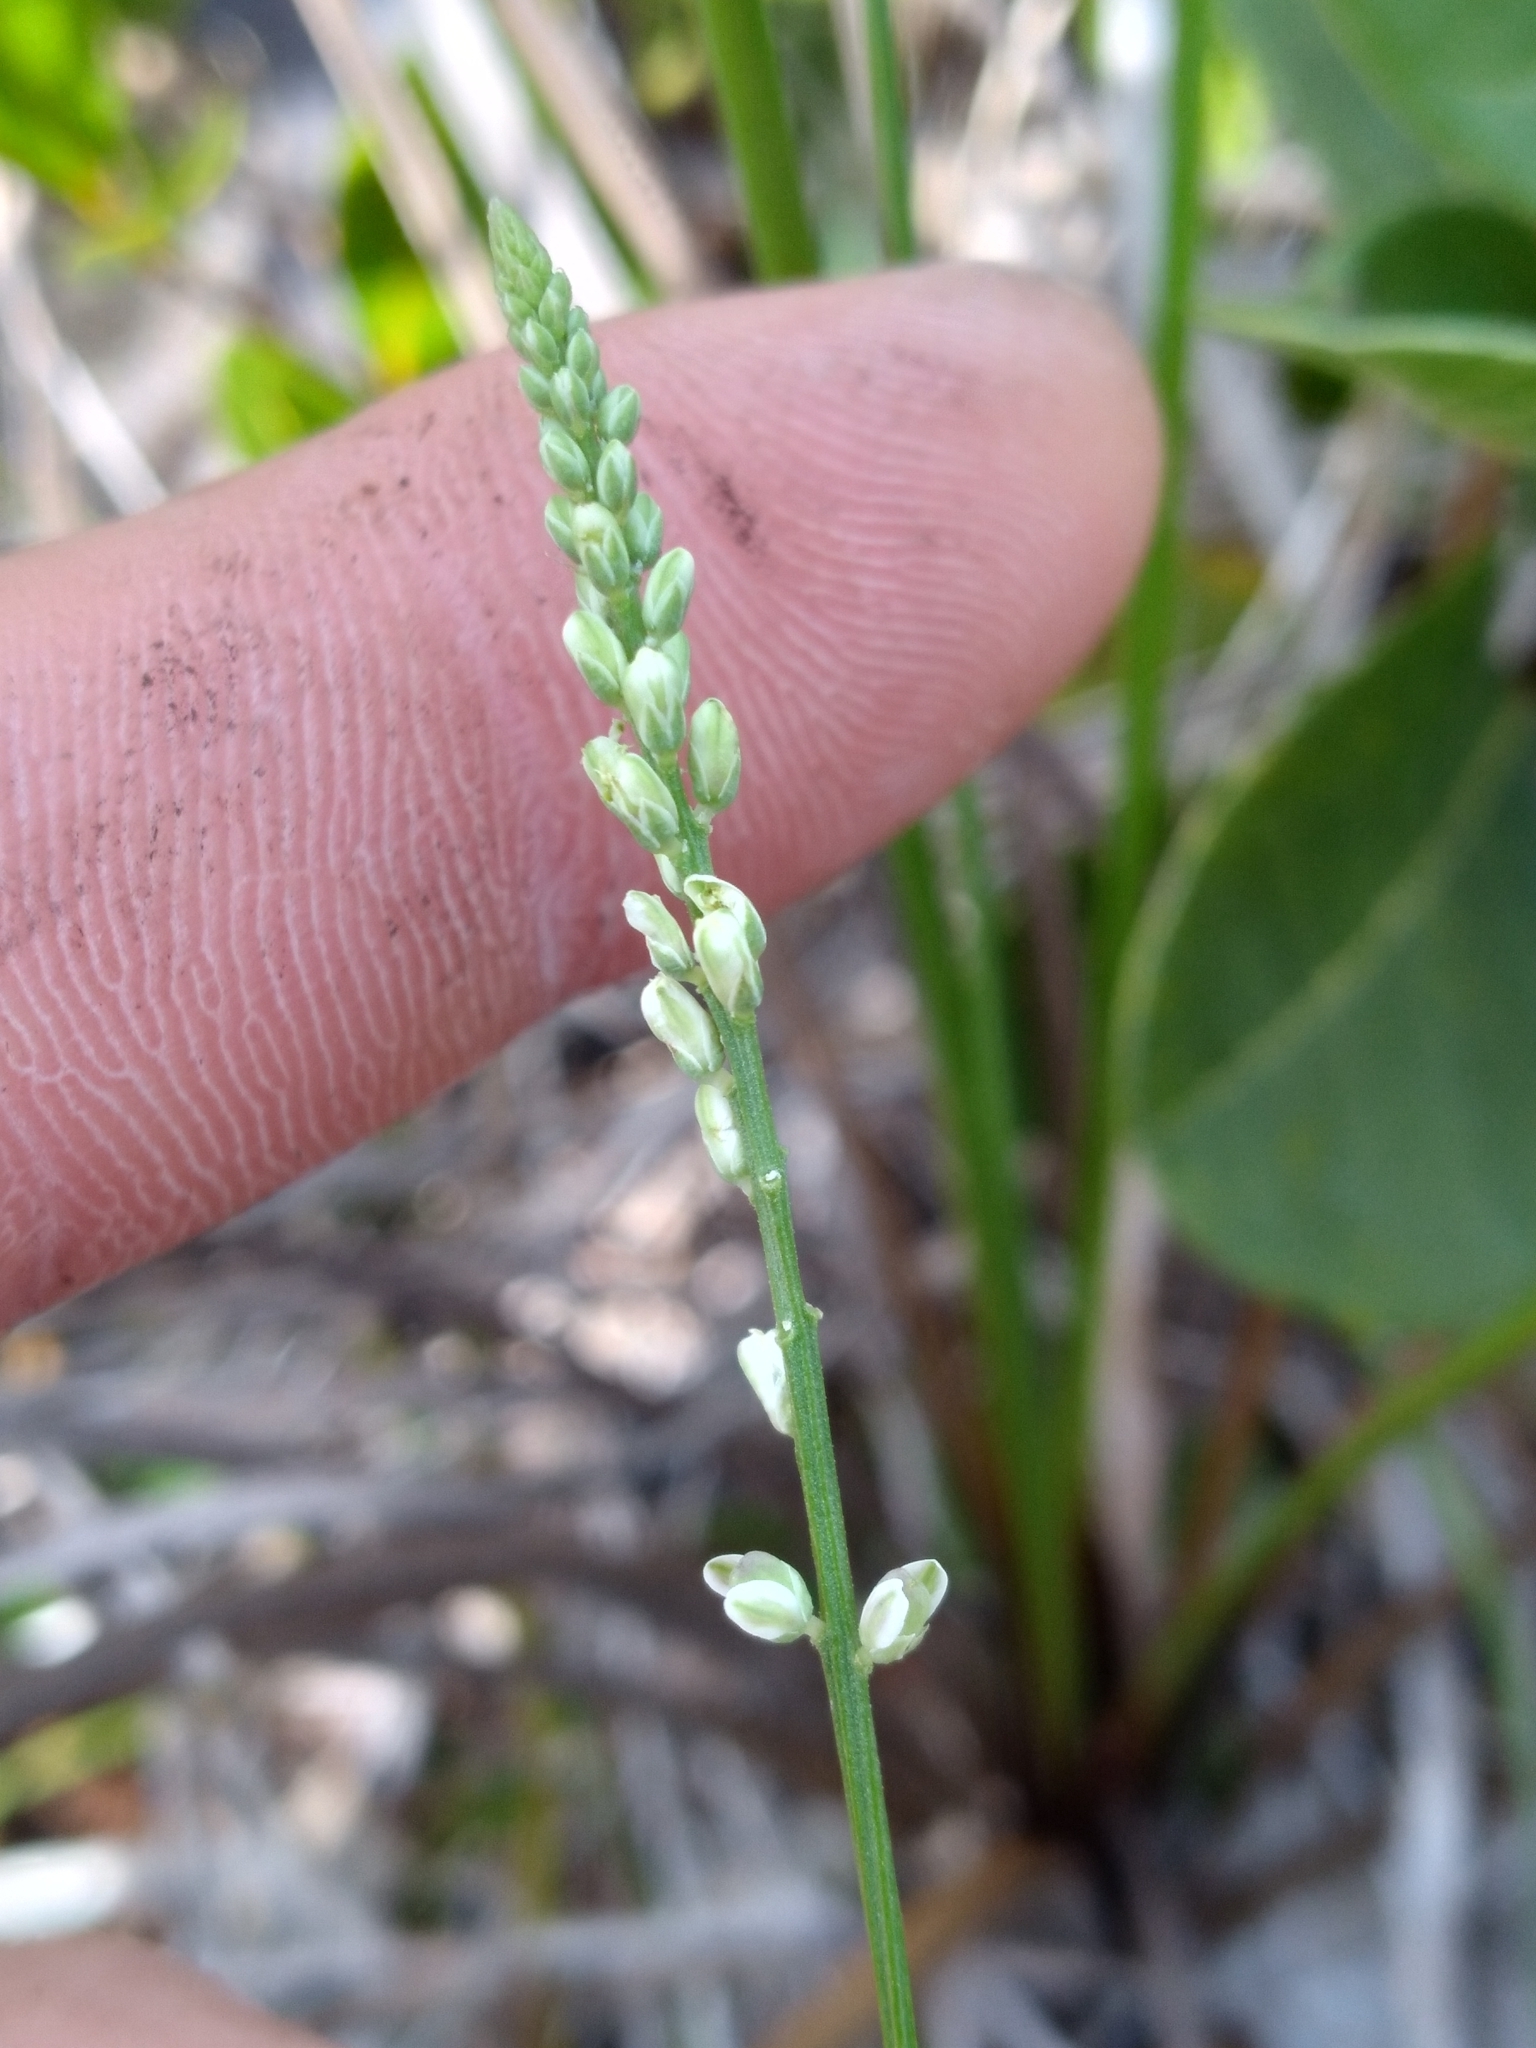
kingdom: Plantae
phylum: Tracheophyta
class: Magnoliopsida
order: Fabales
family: Polygalaceae
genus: Polygala
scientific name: Polygala boykinii
